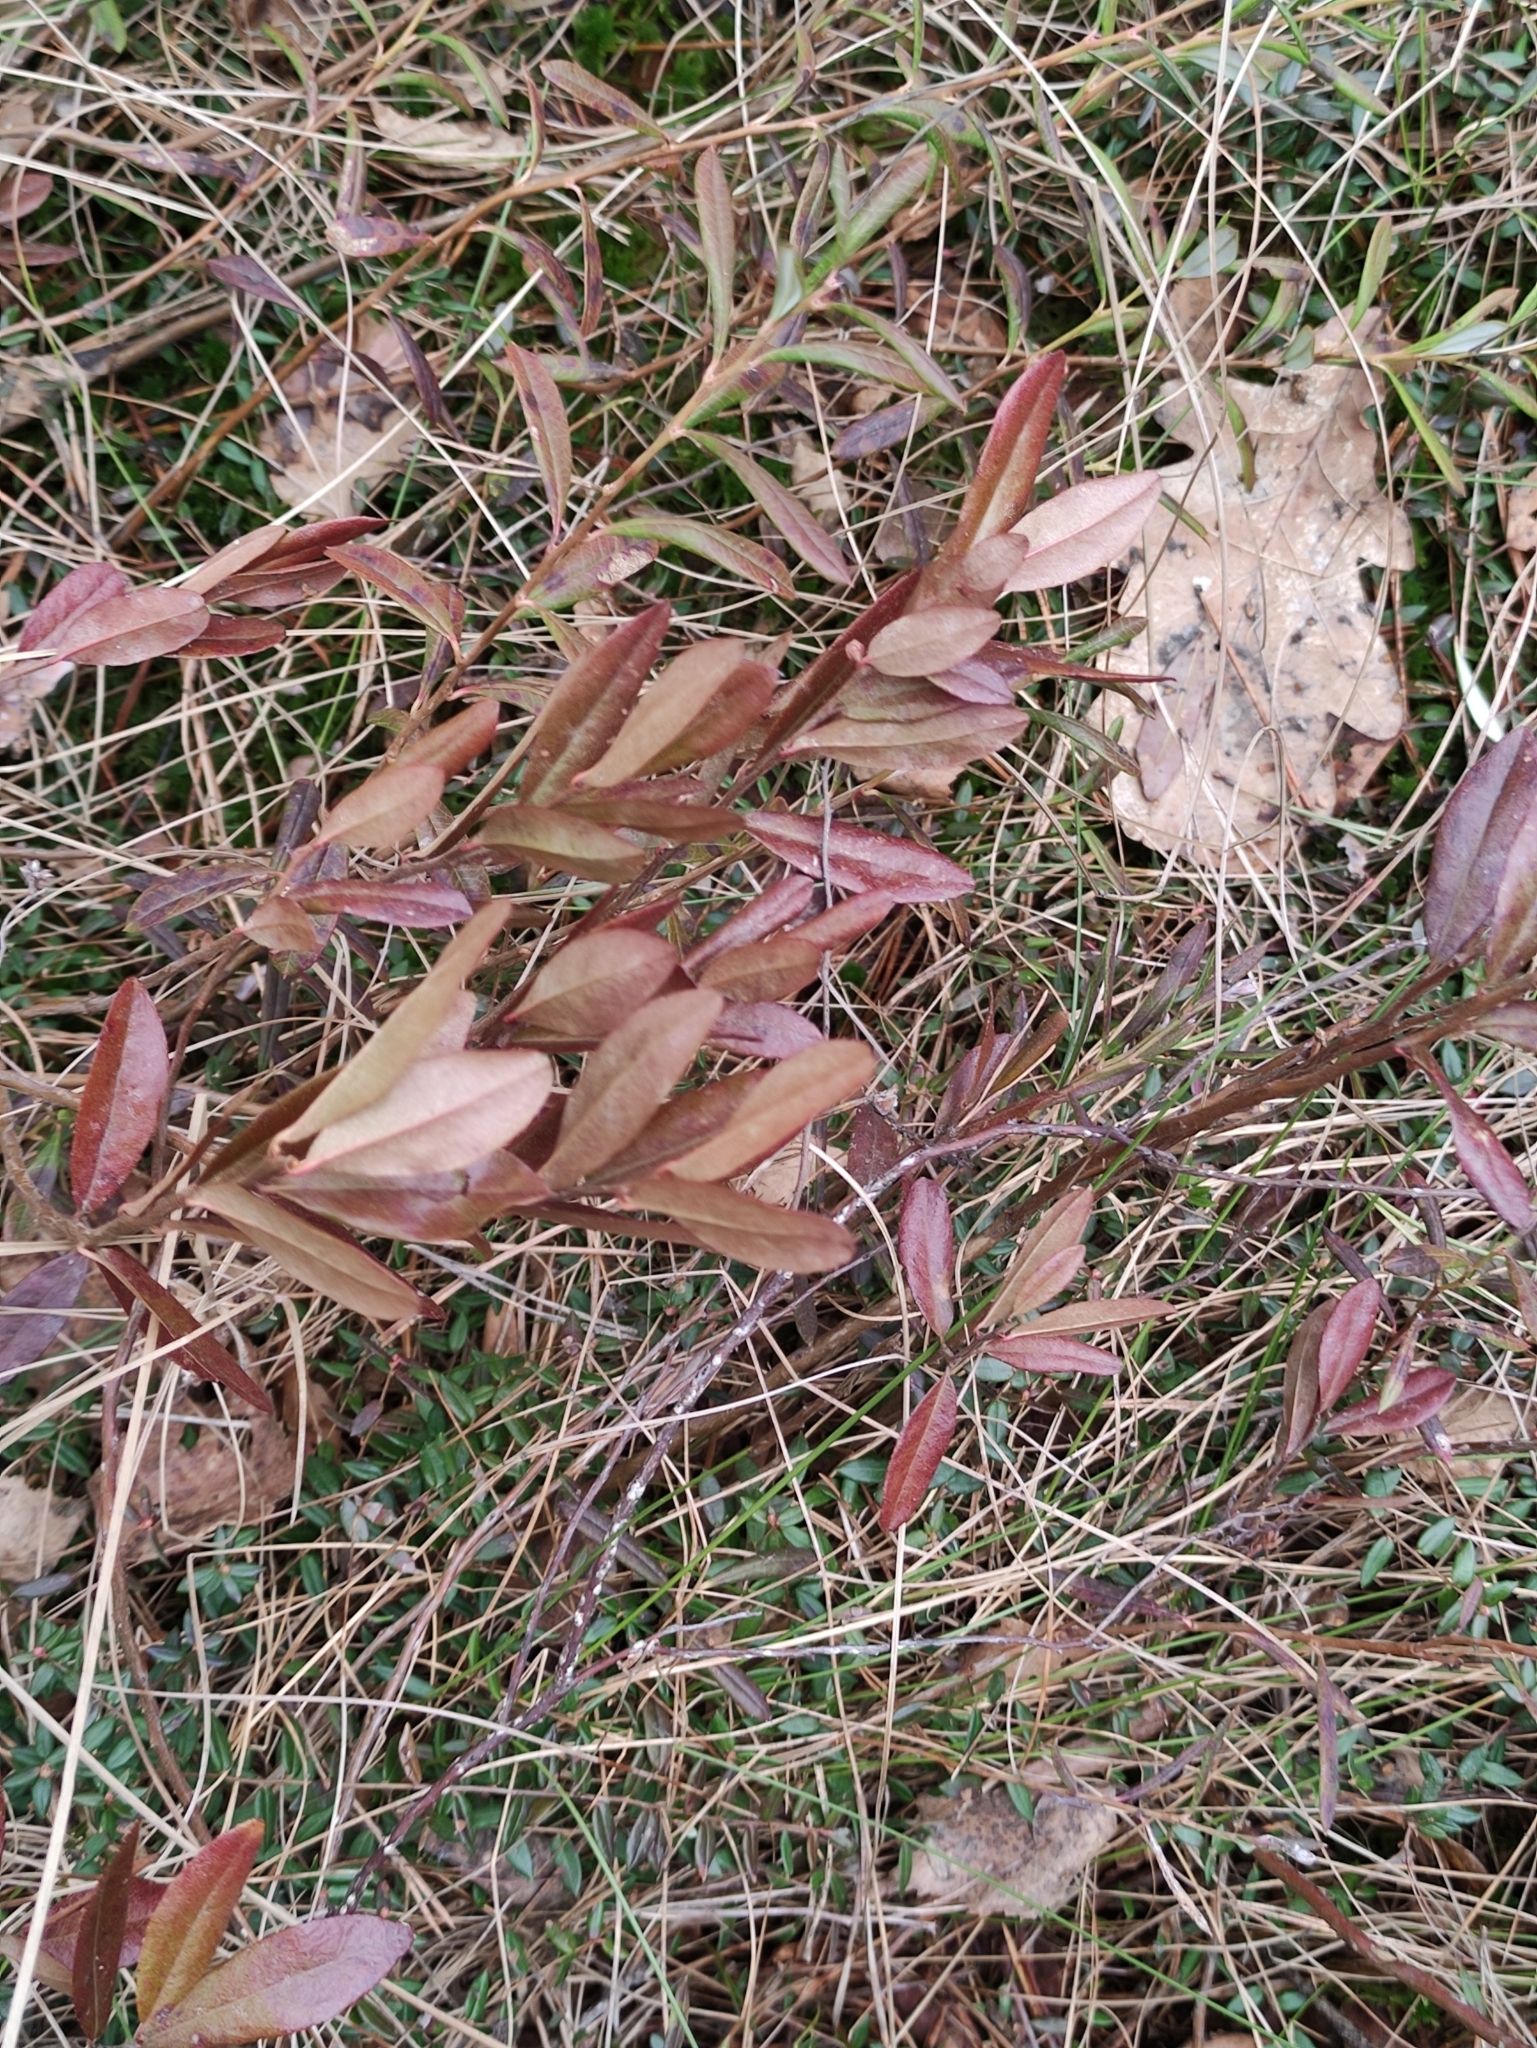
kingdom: Plantae
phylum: Tracheophyta
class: Magnoliopsida
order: Ericales
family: Ericaceae
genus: Chamaedaphne
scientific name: Chamaedaphne calyculata
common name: Leatherleaf
